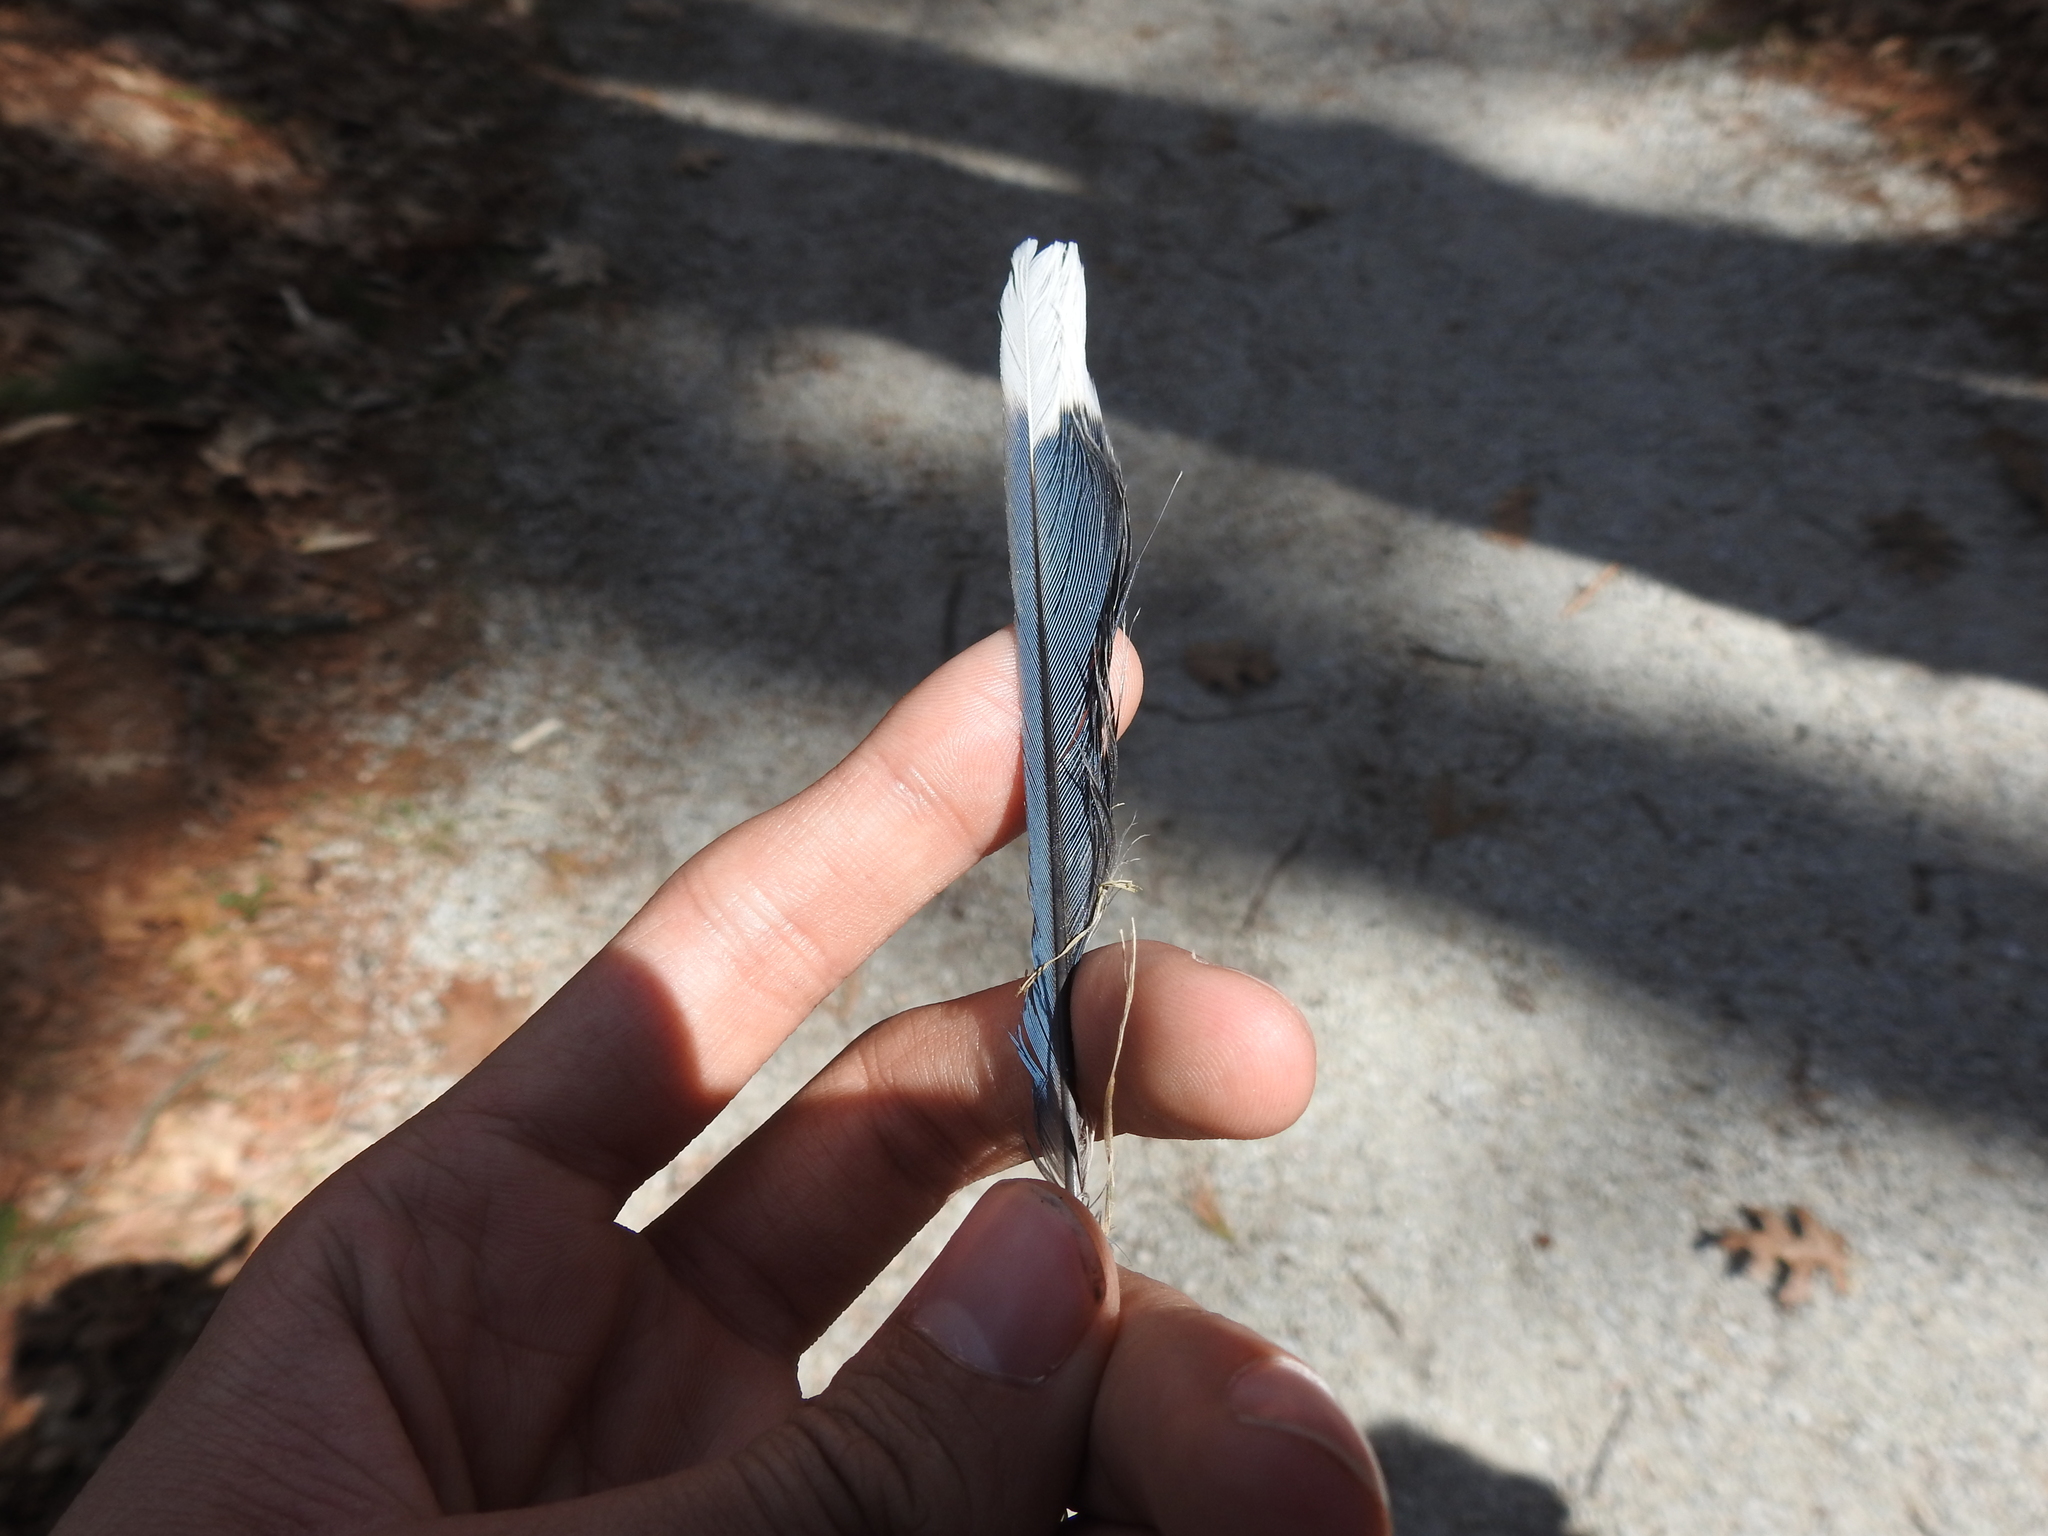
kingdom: Animalia
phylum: Chordata
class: Aves
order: Passeriformes
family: Corvidae
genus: Cyanocitta
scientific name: Cyanocitta cristata
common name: Blue jay
